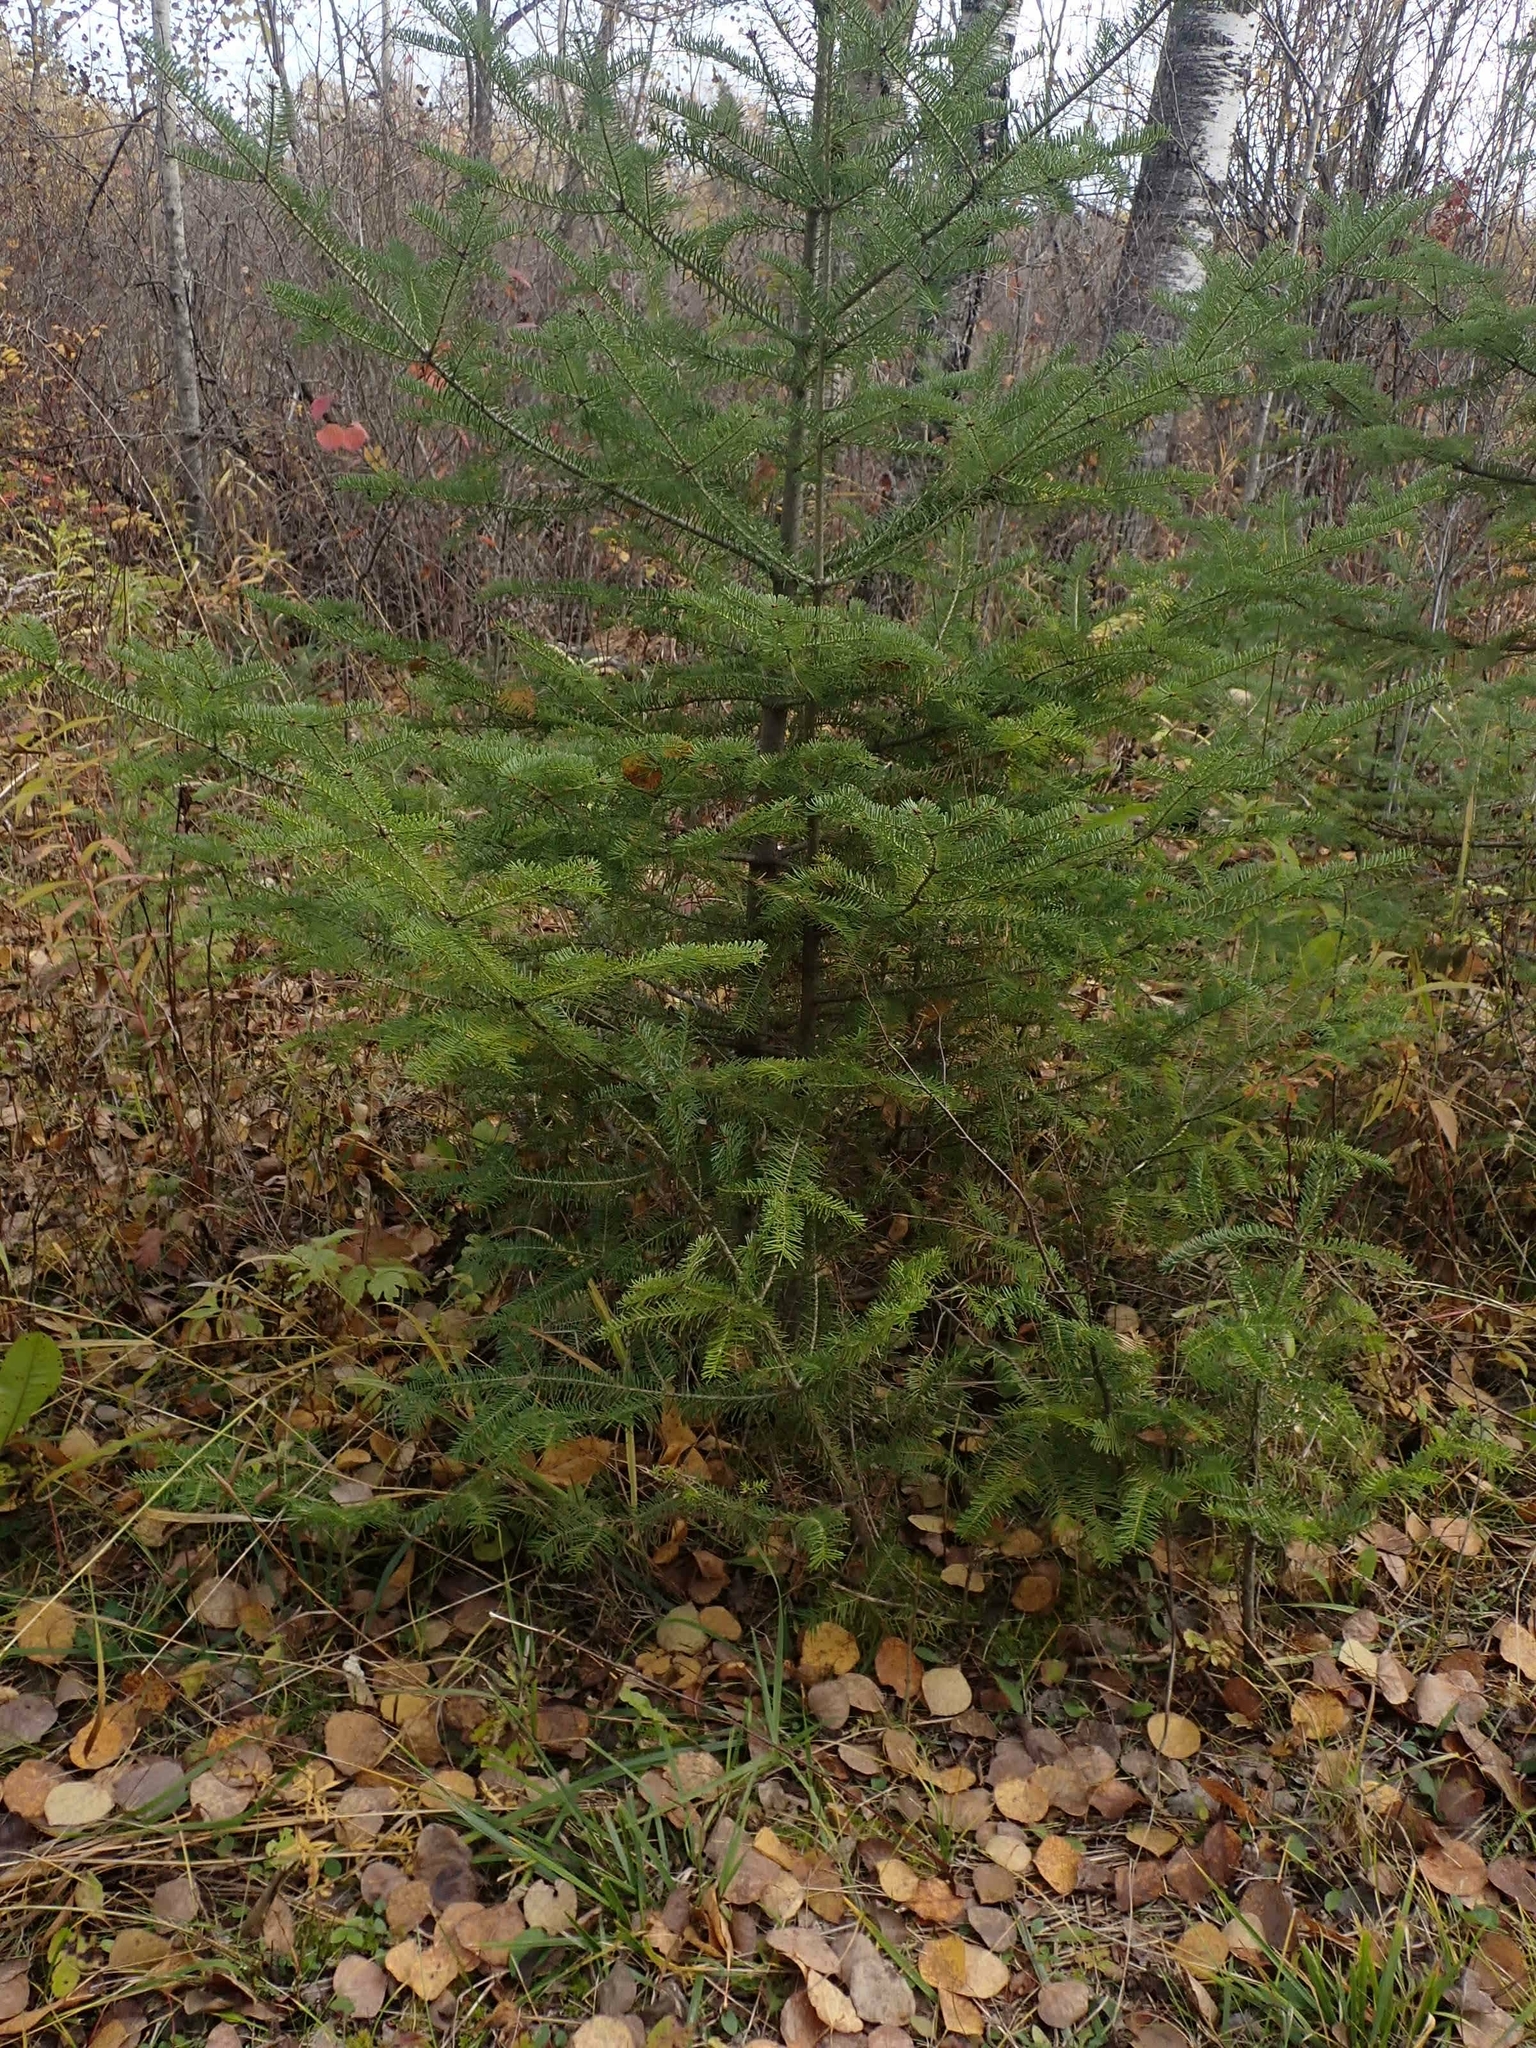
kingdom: Plantae
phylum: Tracheophyta
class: Pinopsida
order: Pinales
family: Pinaceae
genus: Abies
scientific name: Abies balsamea
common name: Balsam fir
